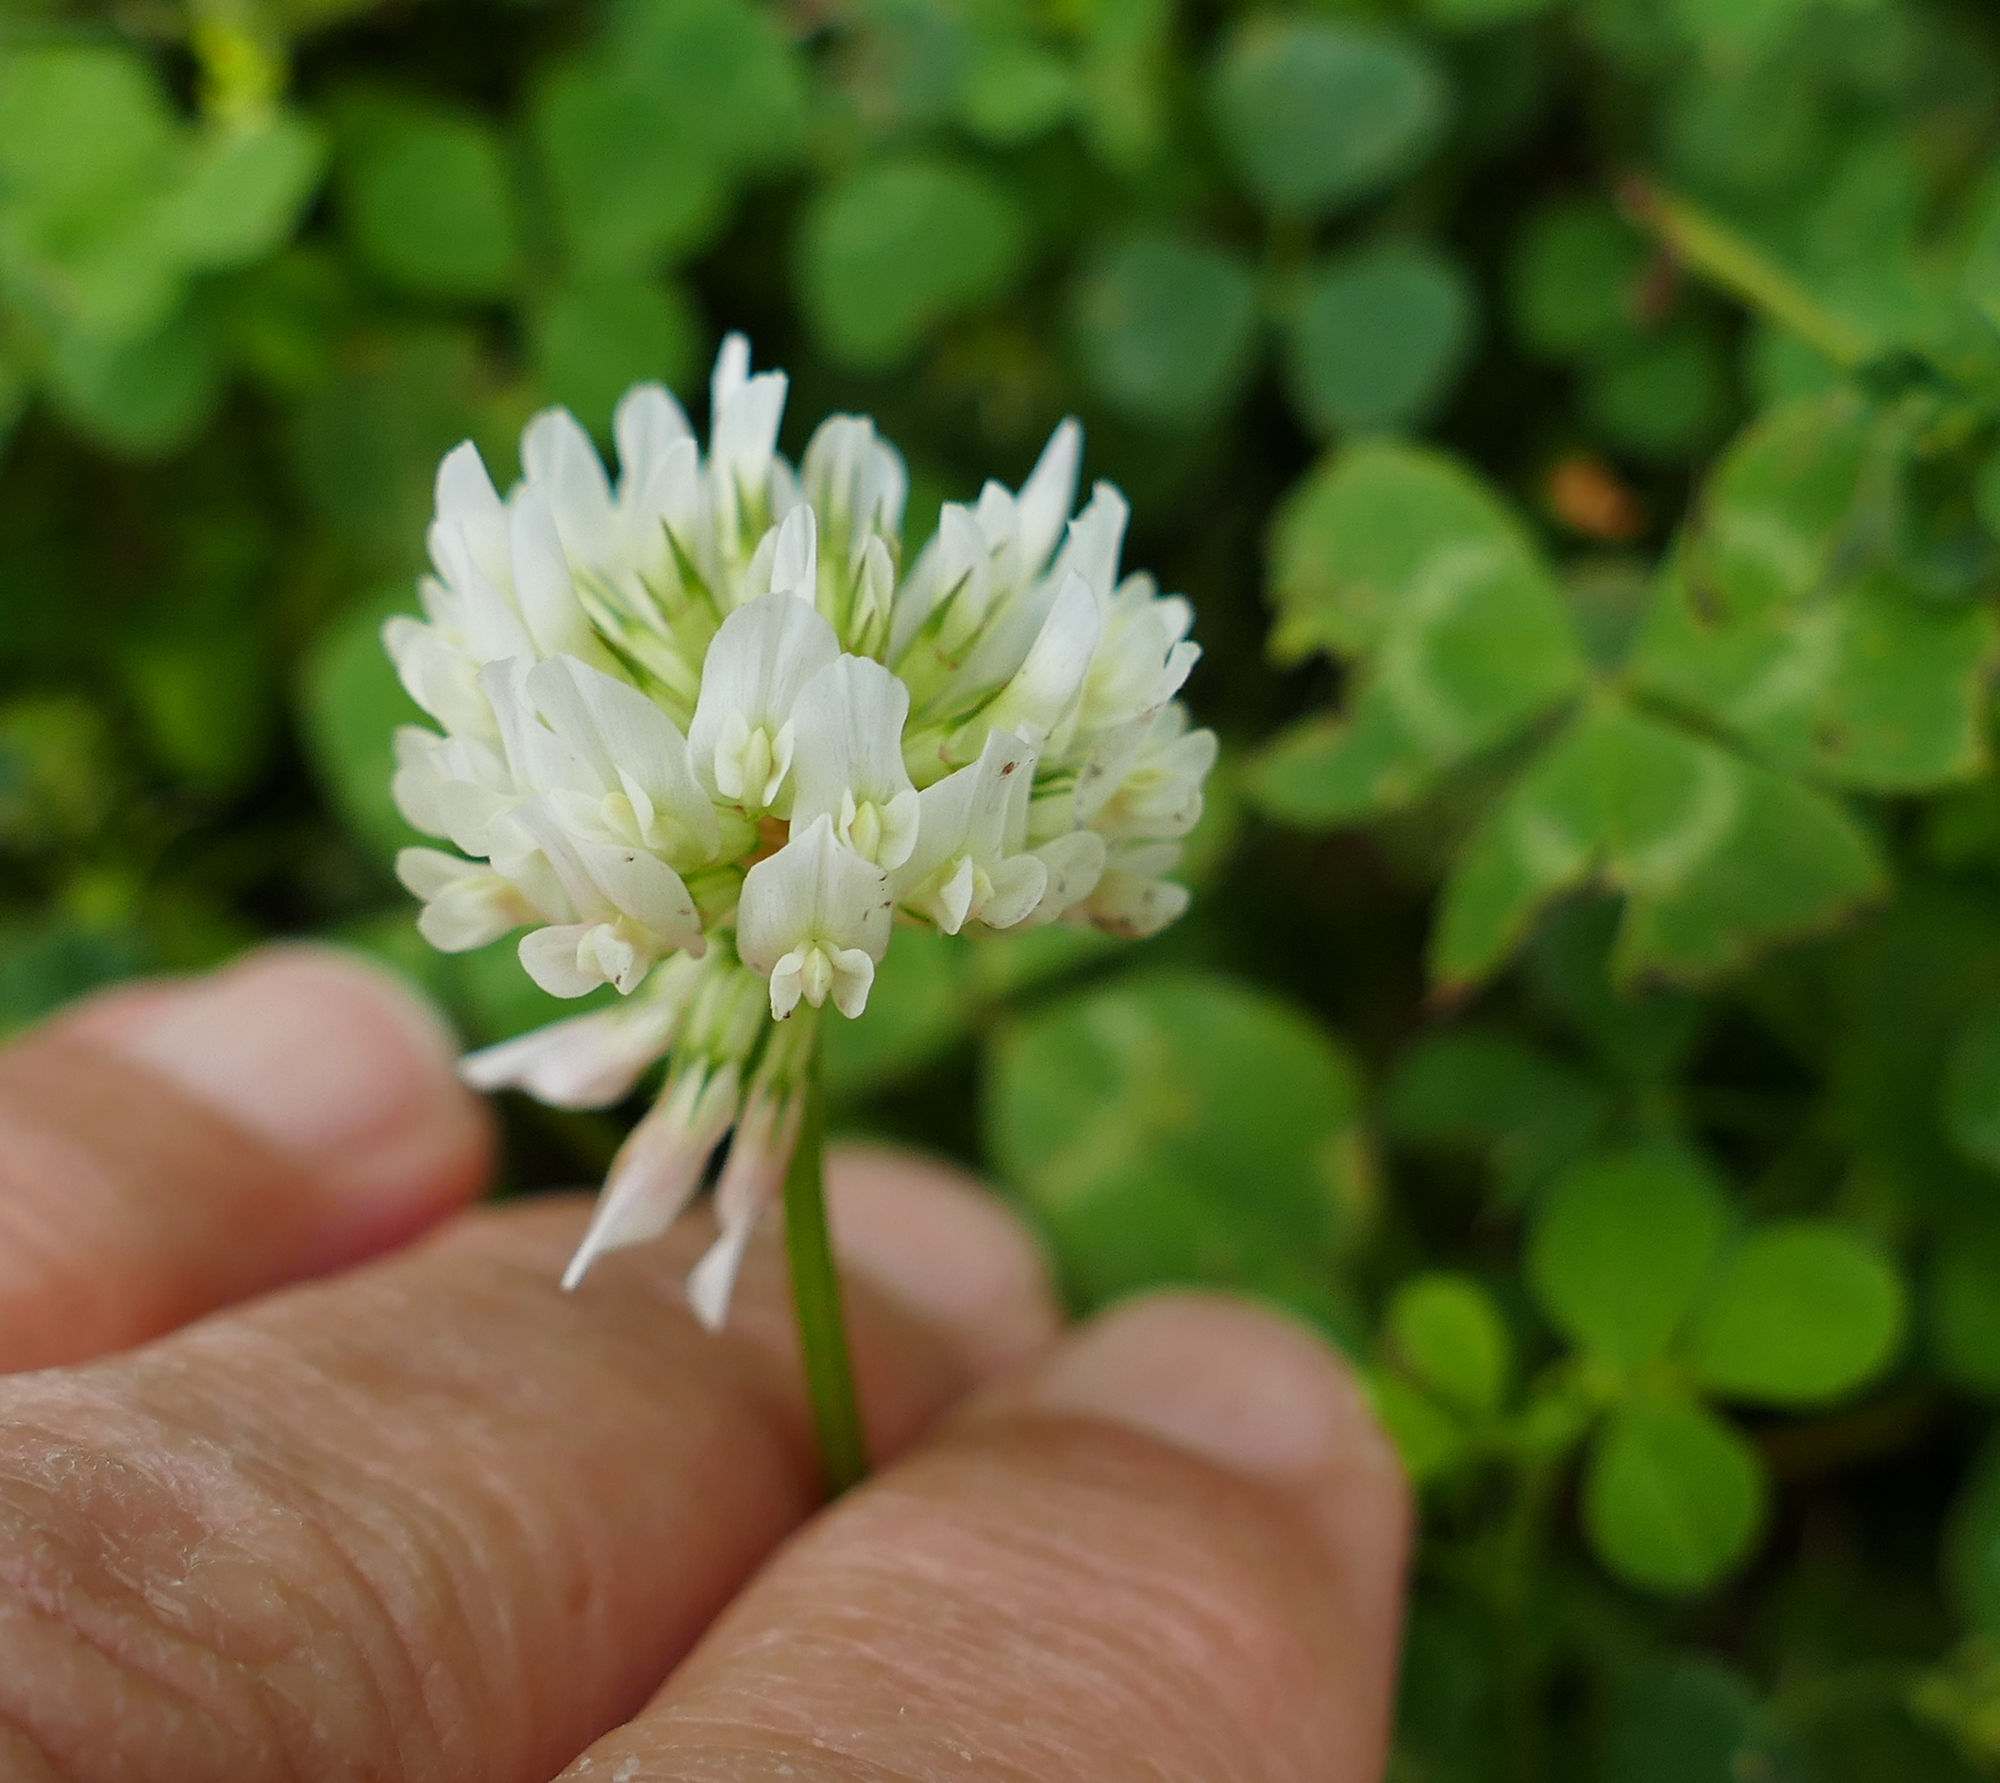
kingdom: Plantae
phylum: Tracheophyta
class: Magnoliopsida
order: Fabales
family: Fabaceae
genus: Trifolium
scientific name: Trifolium repens
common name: White clover
